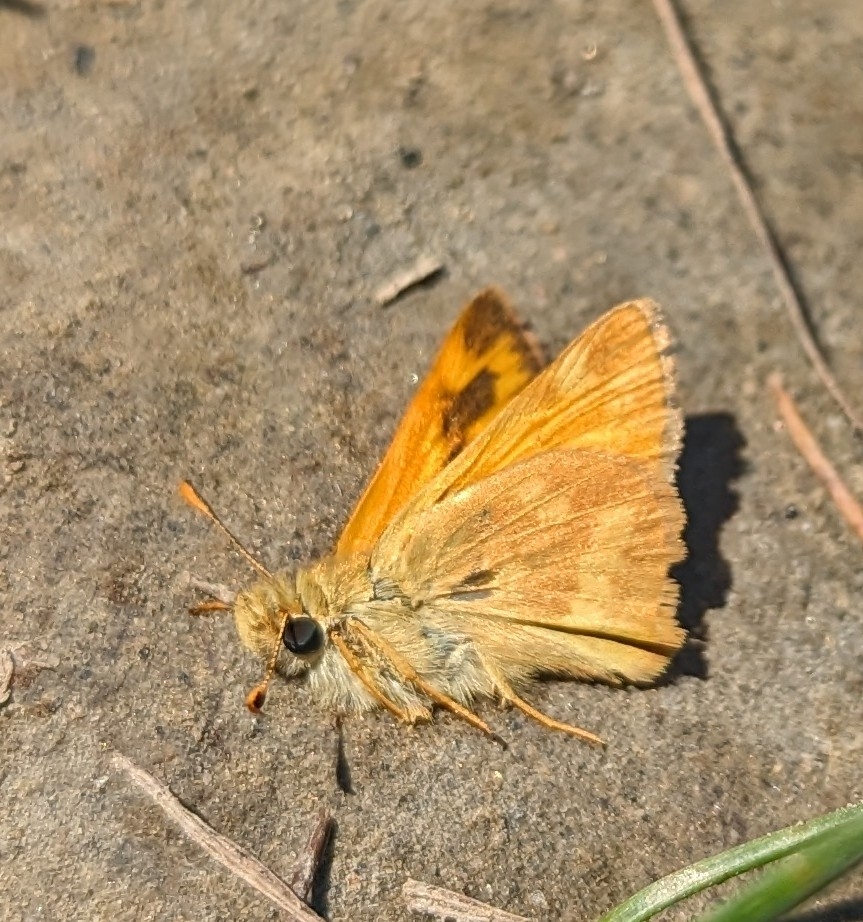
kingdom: Animalia
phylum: Arthropoda
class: Insecta
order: Lepidoptera
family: Hesperiidae
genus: Ochlodes
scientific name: Ochlodes sylvanoides
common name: Woodland skipper
